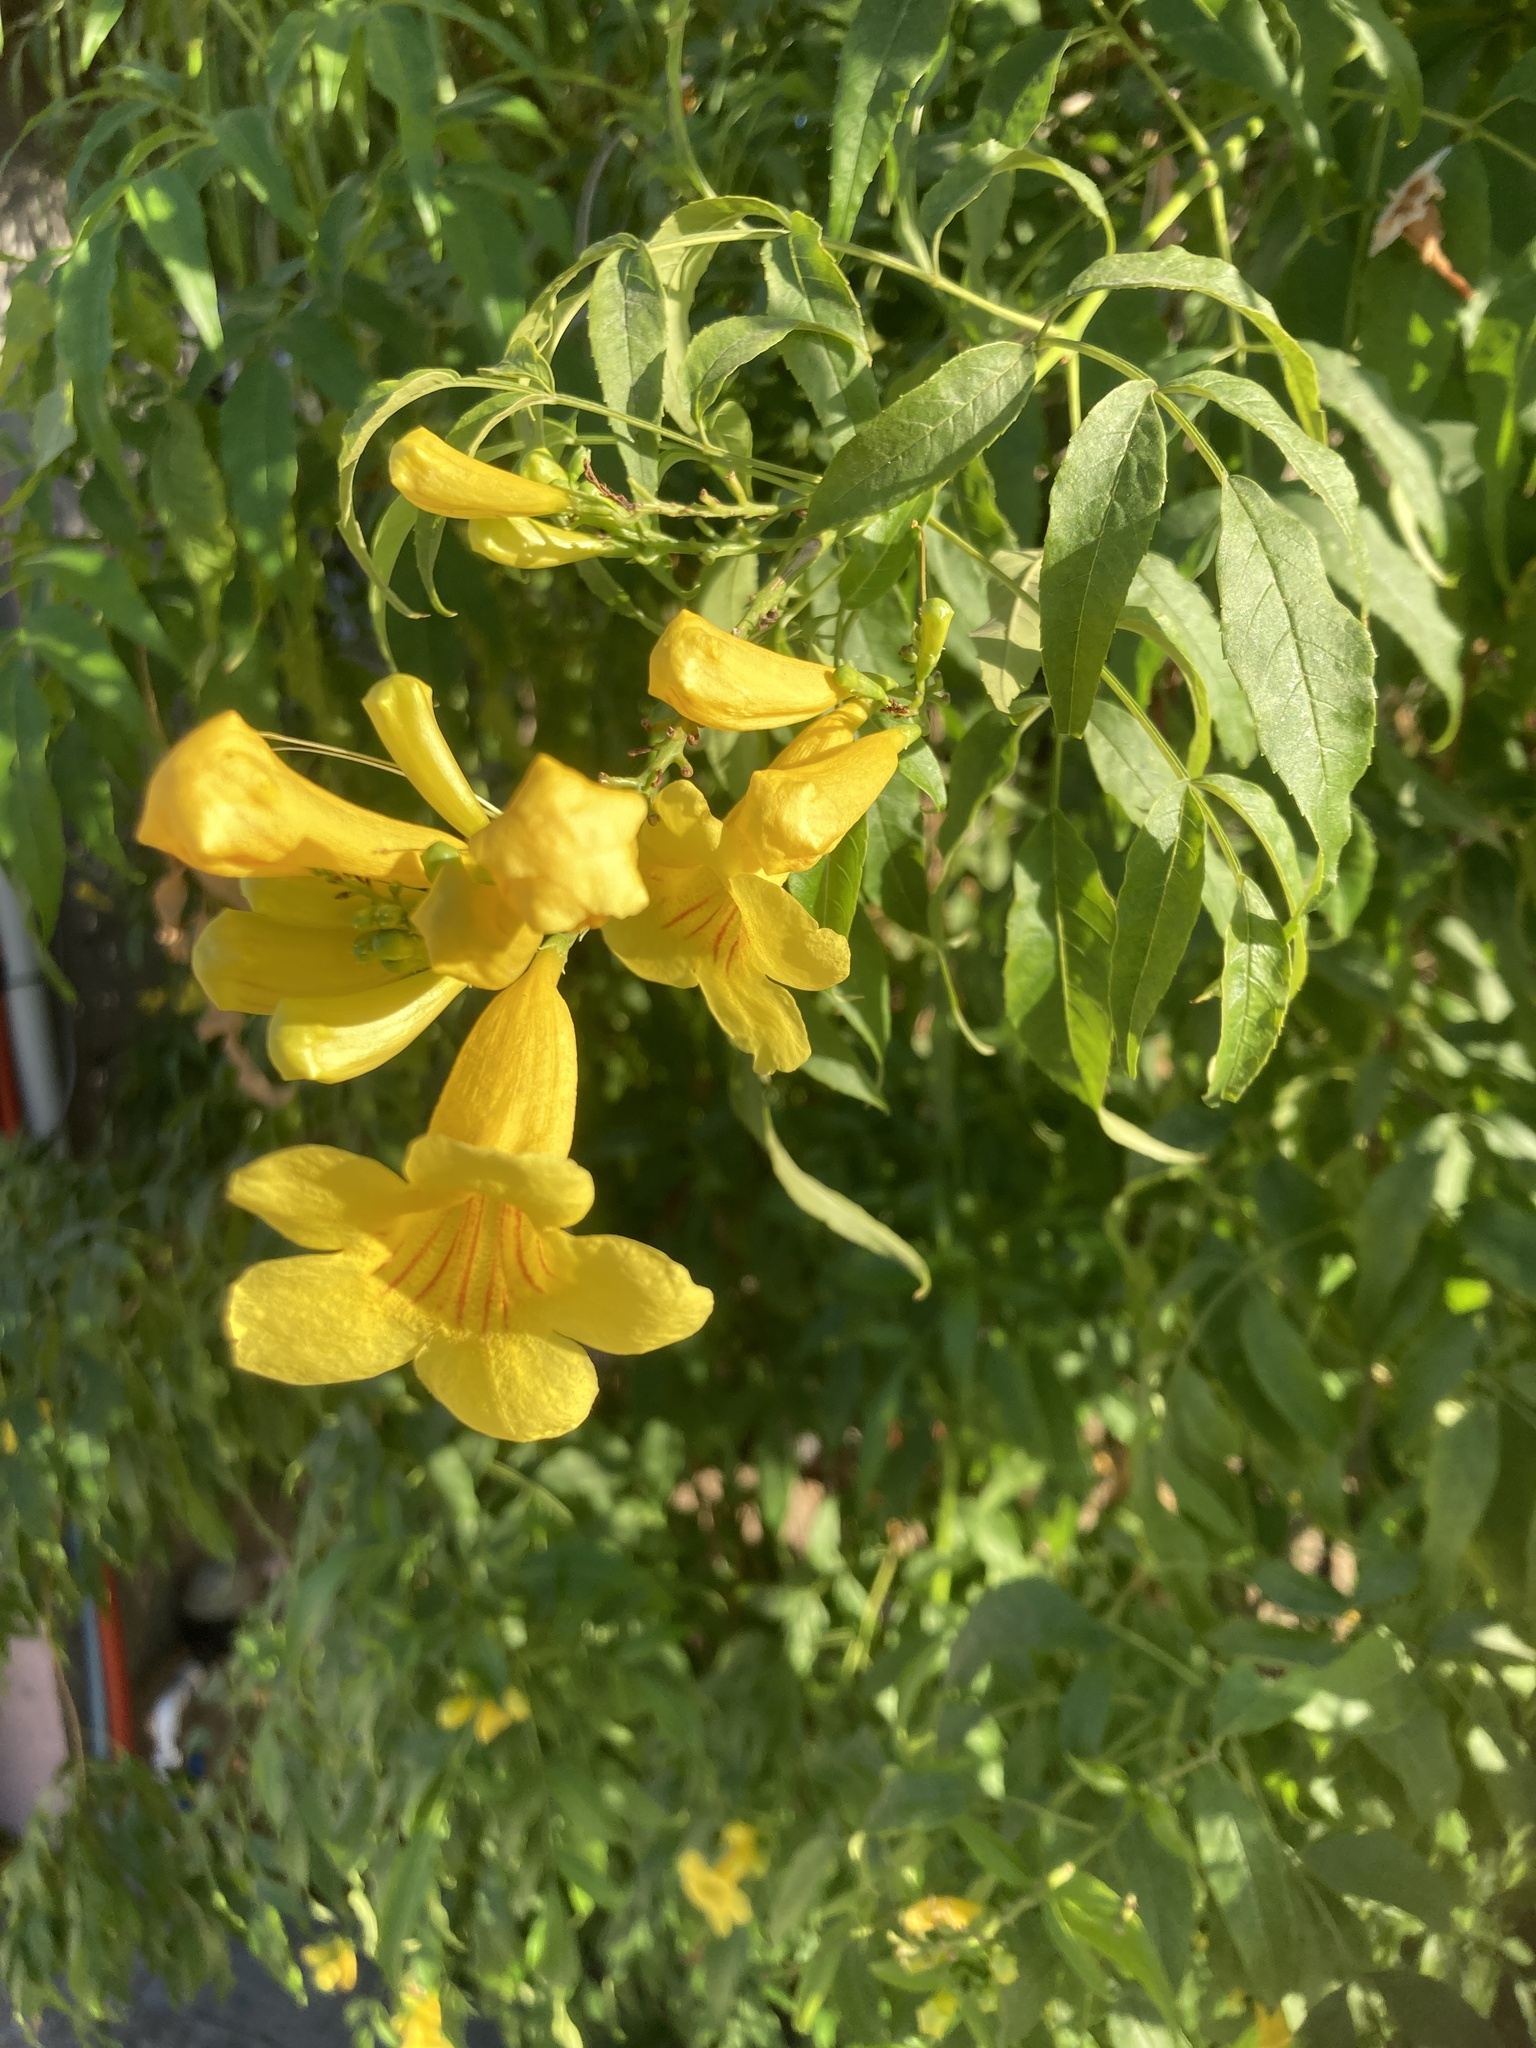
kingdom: Plantae
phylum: Tracheophyta
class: Magnoliopsida
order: Lamiales
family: Bignoniaceae
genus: Tecoma
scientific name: Tecoma stans
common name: Yellow trumpetbush
